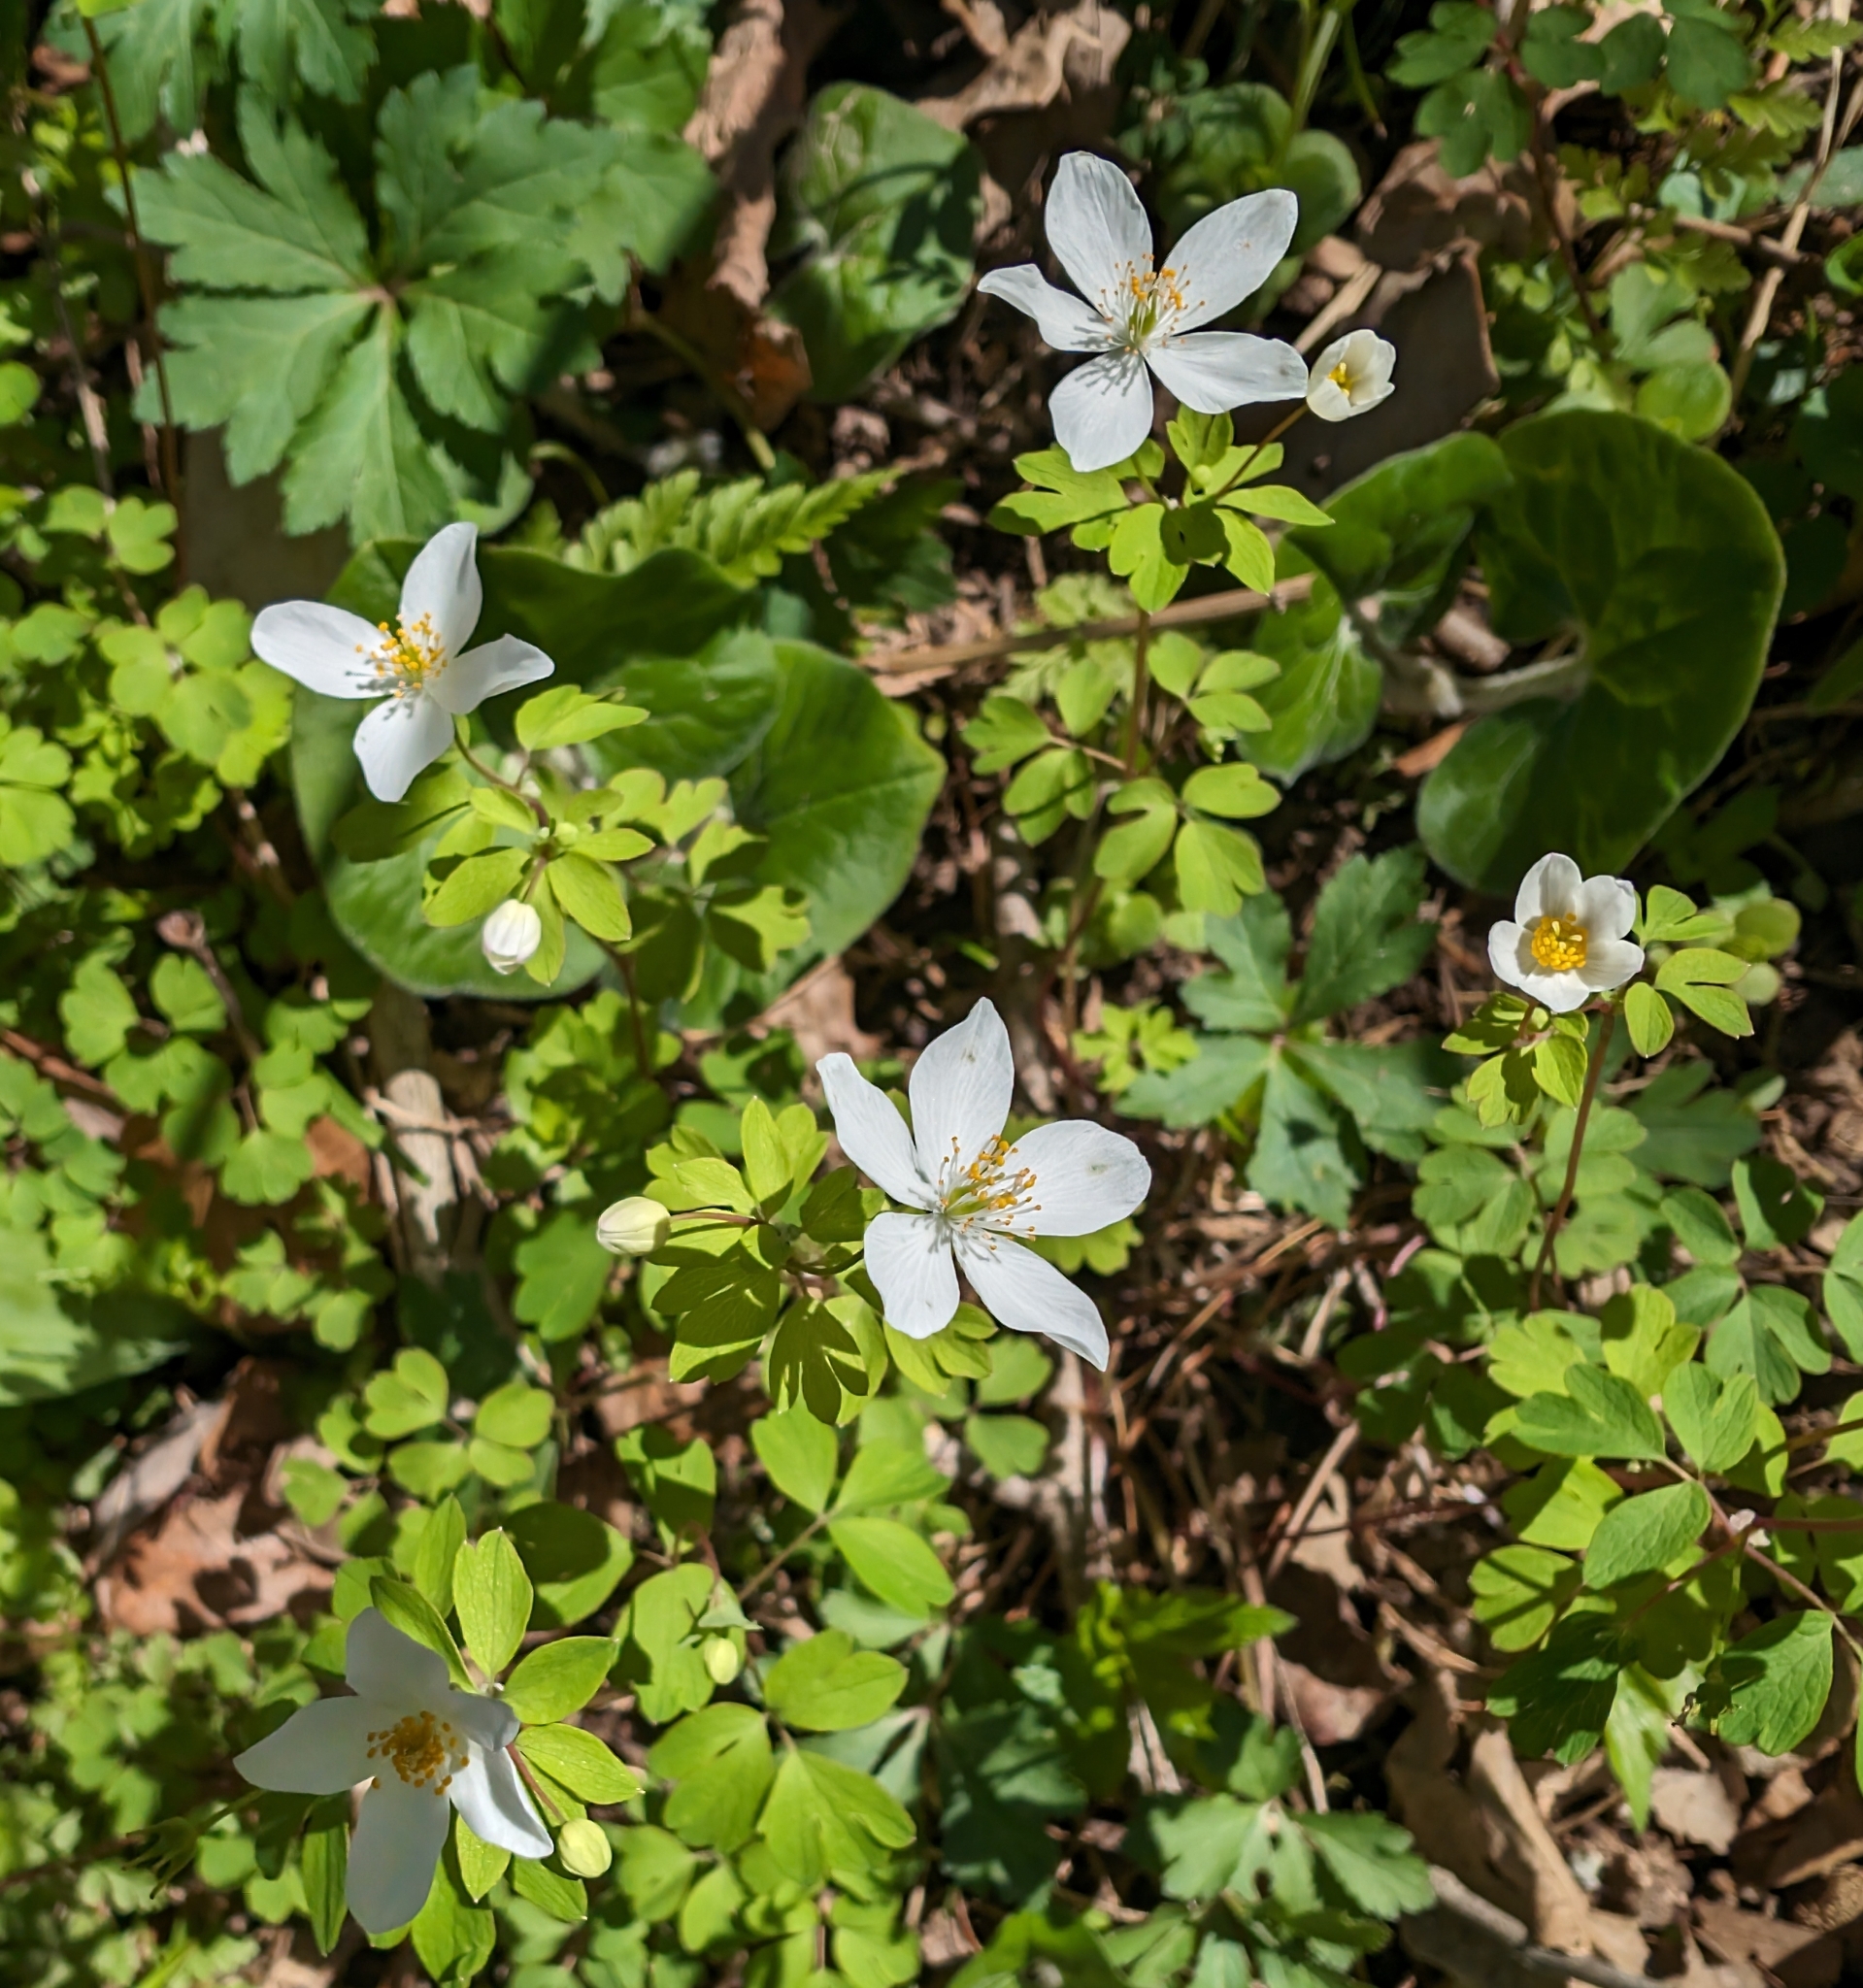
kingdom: Plantae
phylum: Tracheophyta
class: Magnoliopsida
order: Ranunculales
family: Ranunculaceae
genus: Enemion
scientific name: Enemion biternatum
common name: Eastern false rue-anemone
